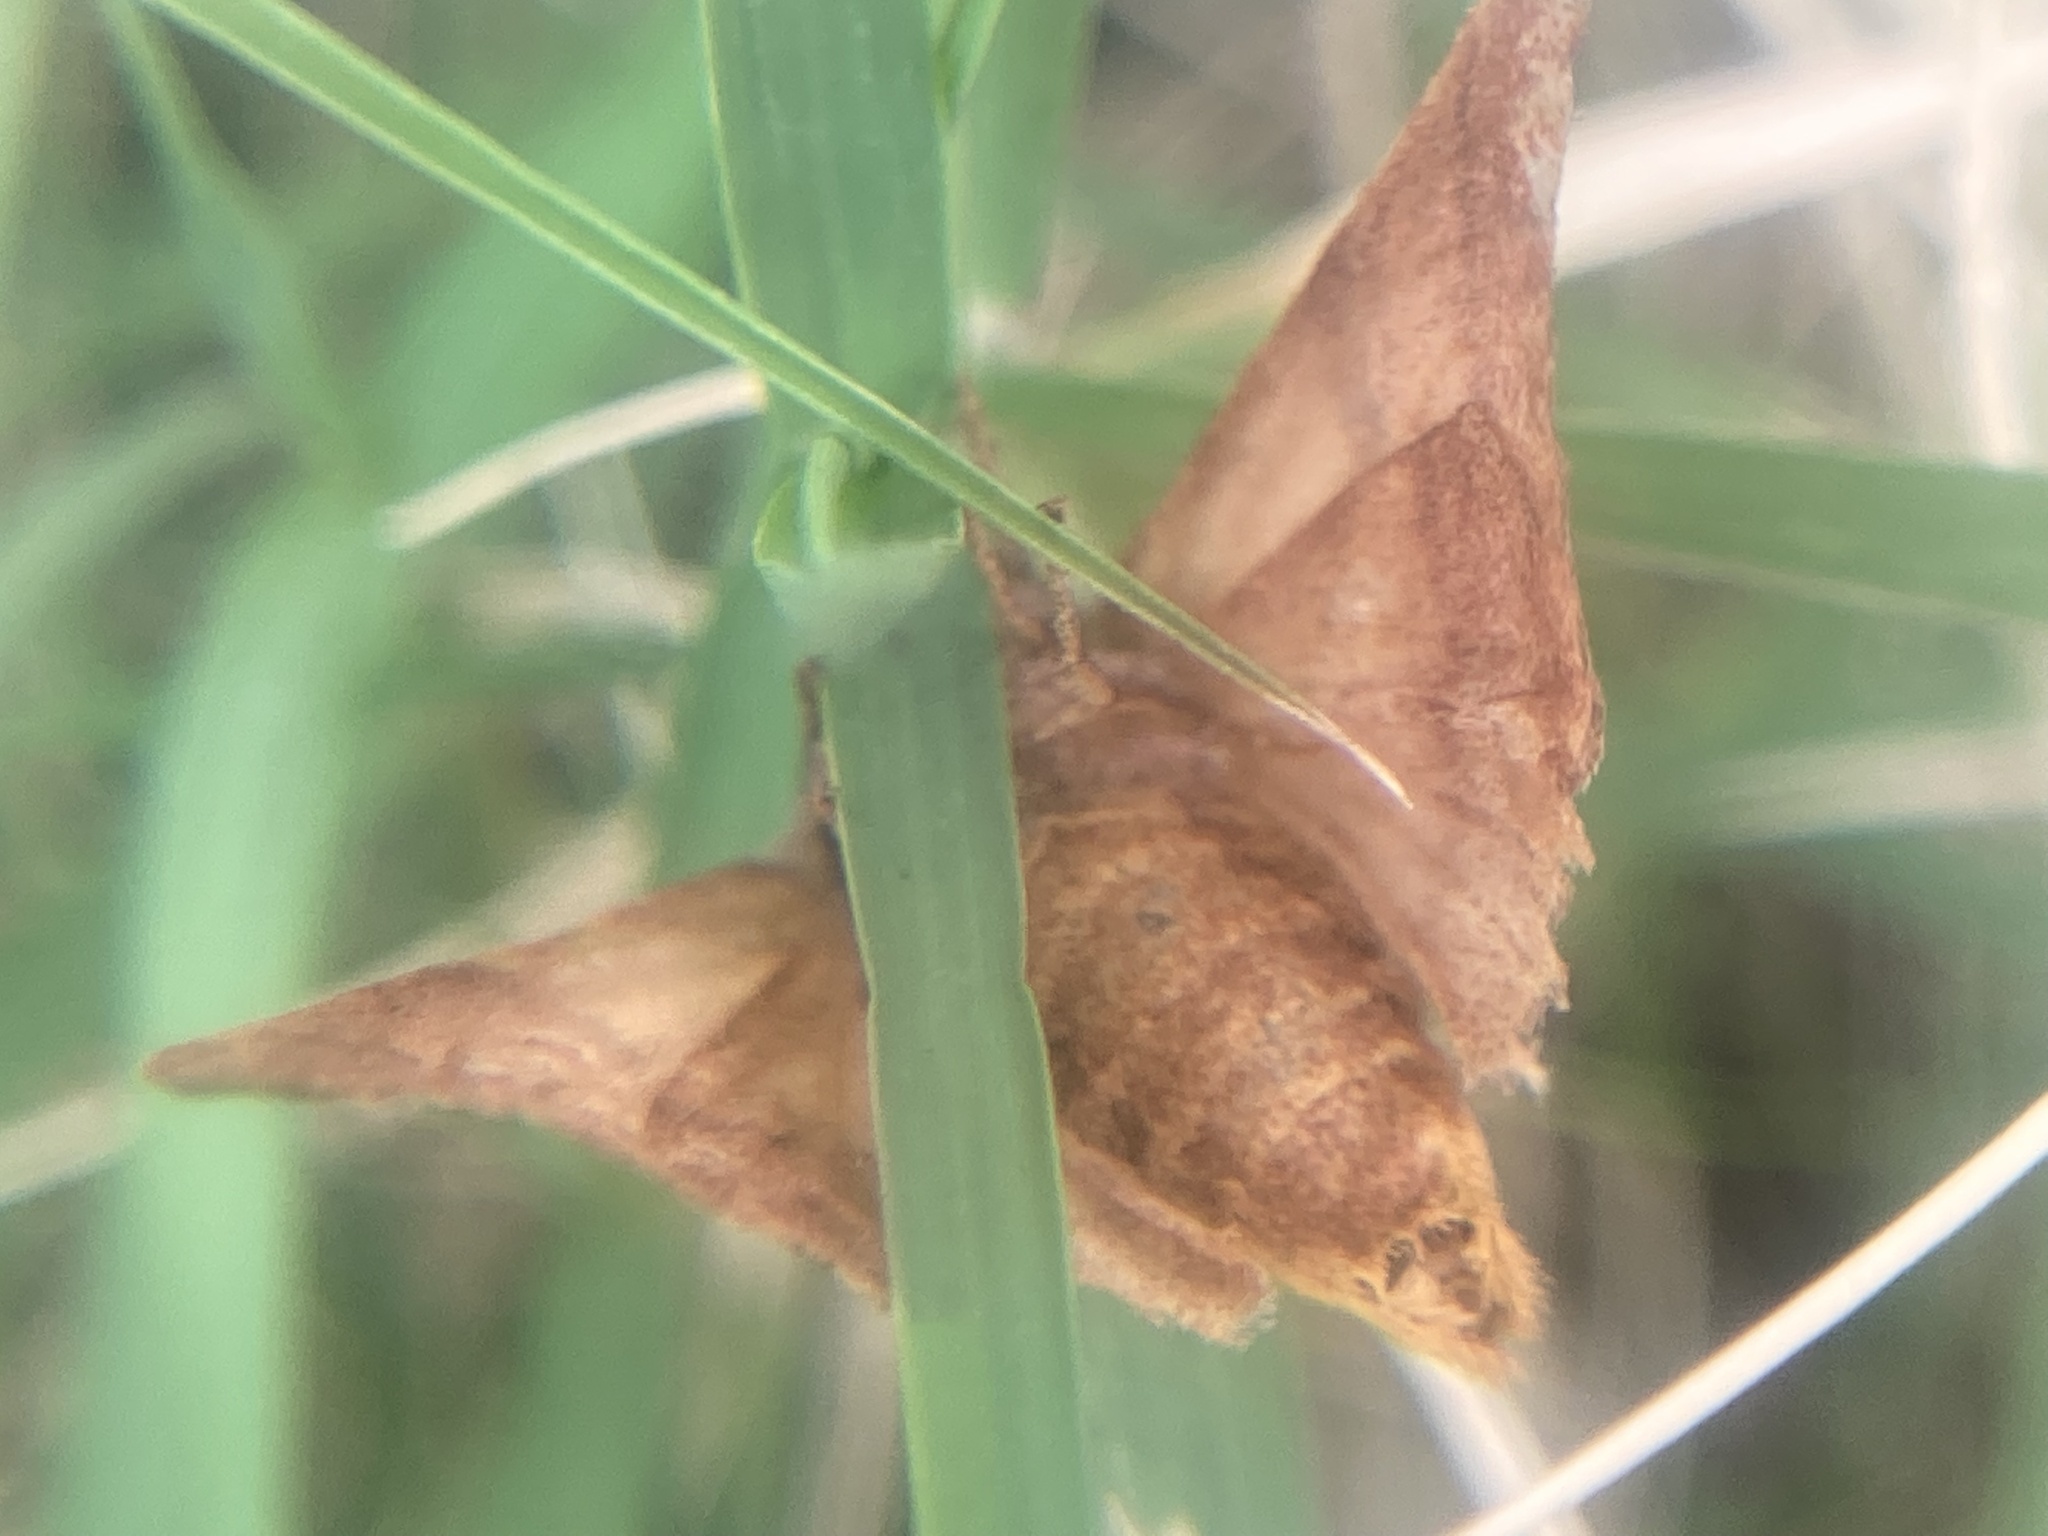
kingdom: Animalia
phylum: Arthropoda
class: Insecta
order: Lepidoptera
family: Noctuidae
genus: Choephora
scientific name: Choephora fungorum
